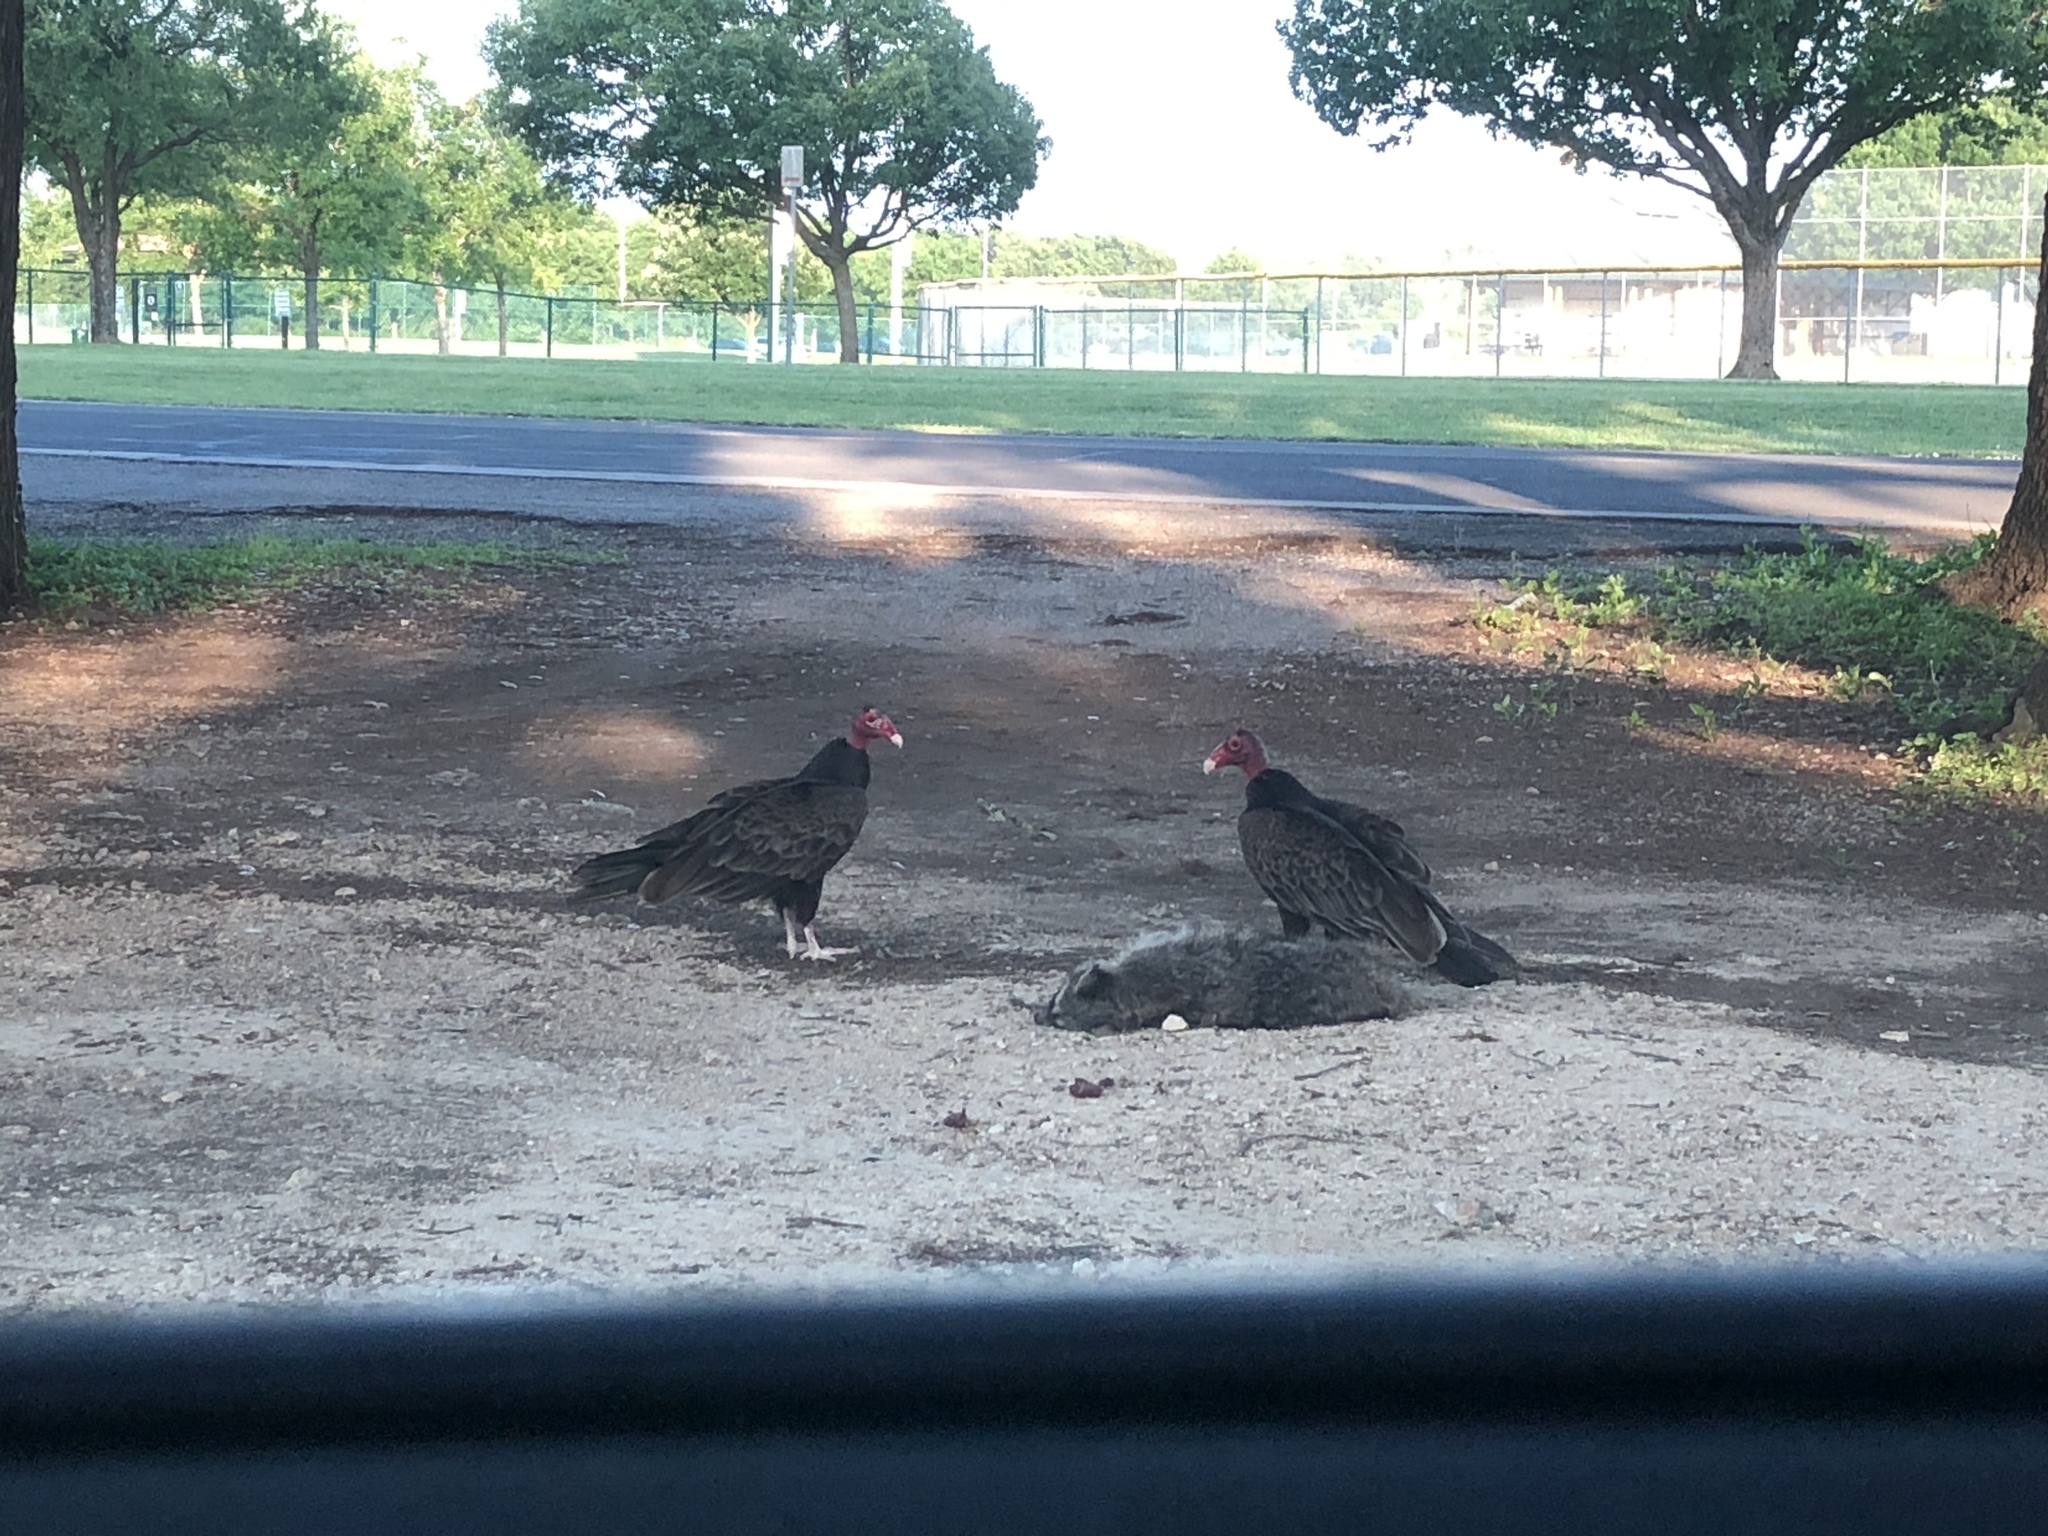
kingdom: Animalia
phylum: Chordata
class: Aves
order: Accipitriformes
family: Cathartidae
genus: Cathartes
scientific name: Cathartes aura
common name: Turkey vulture
